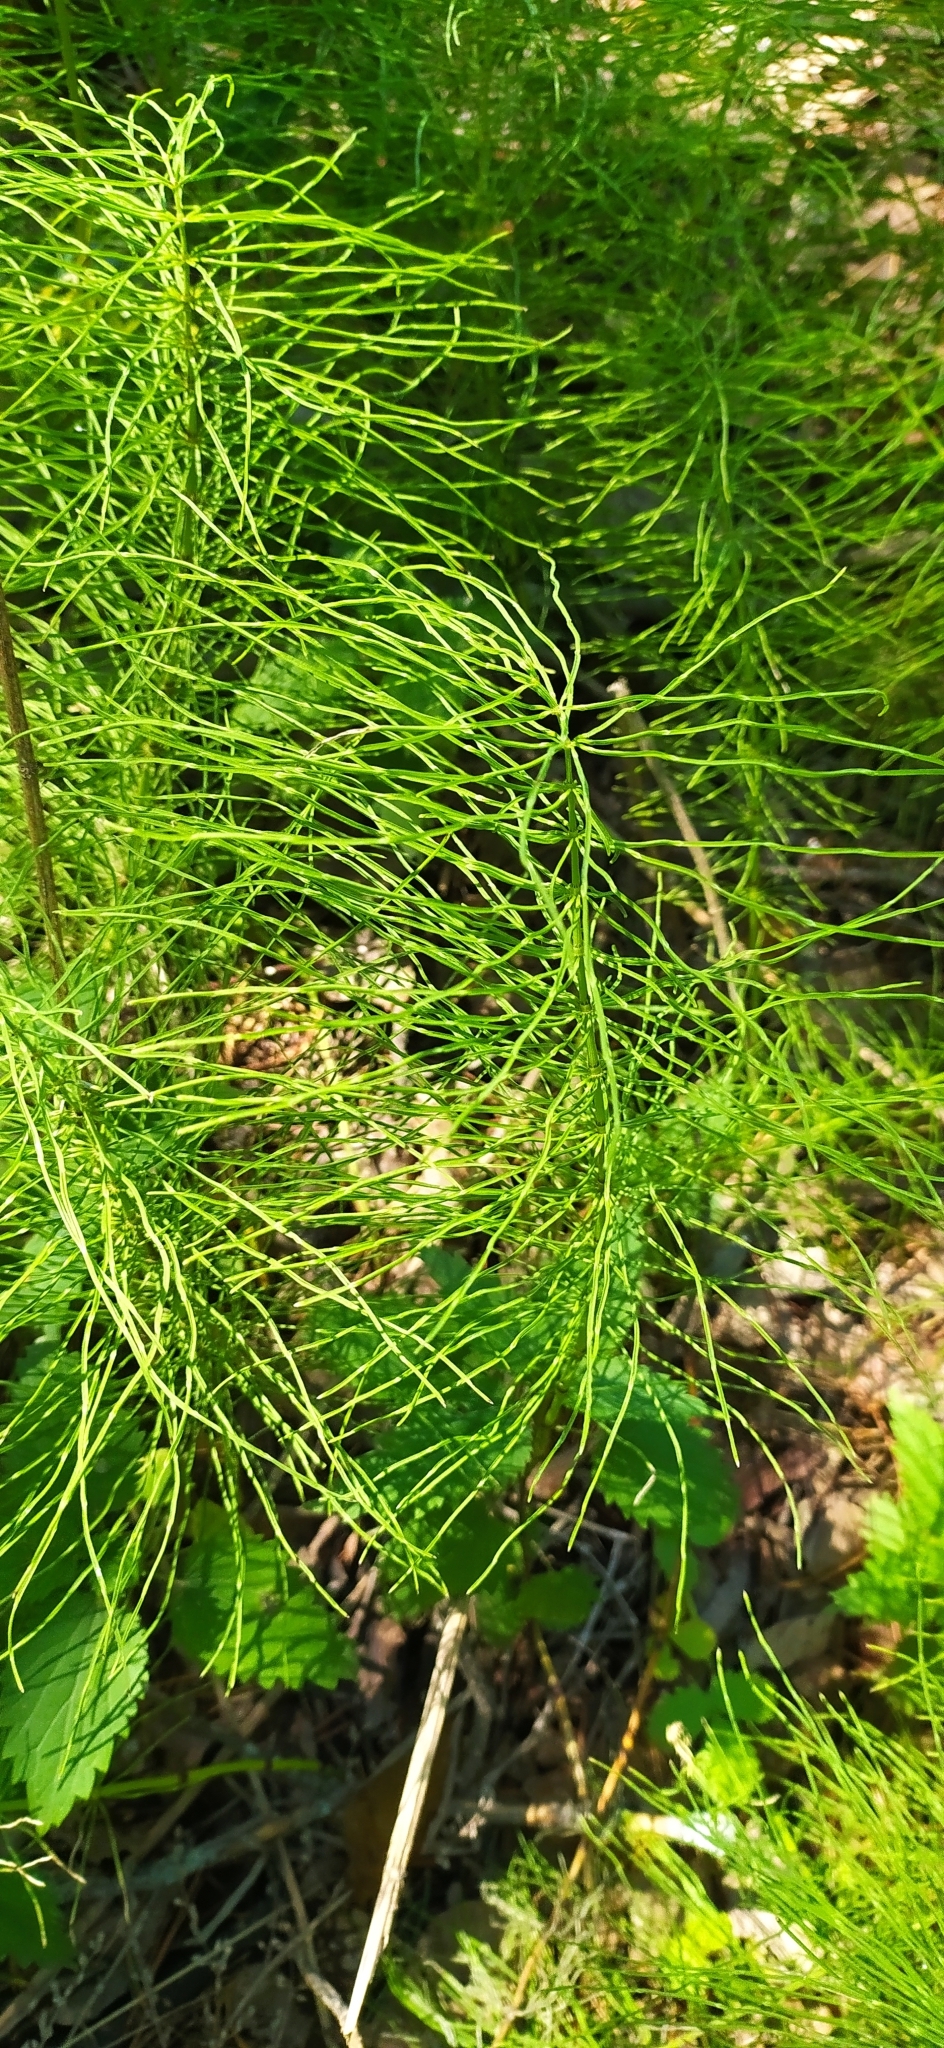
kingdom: Plantae
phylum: Tracheophyta
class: Polypodiopsida
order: Equisetales
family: Equisetaceae
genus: Equisetum
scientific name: Equisetum pratense
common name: Meadow horsetail
